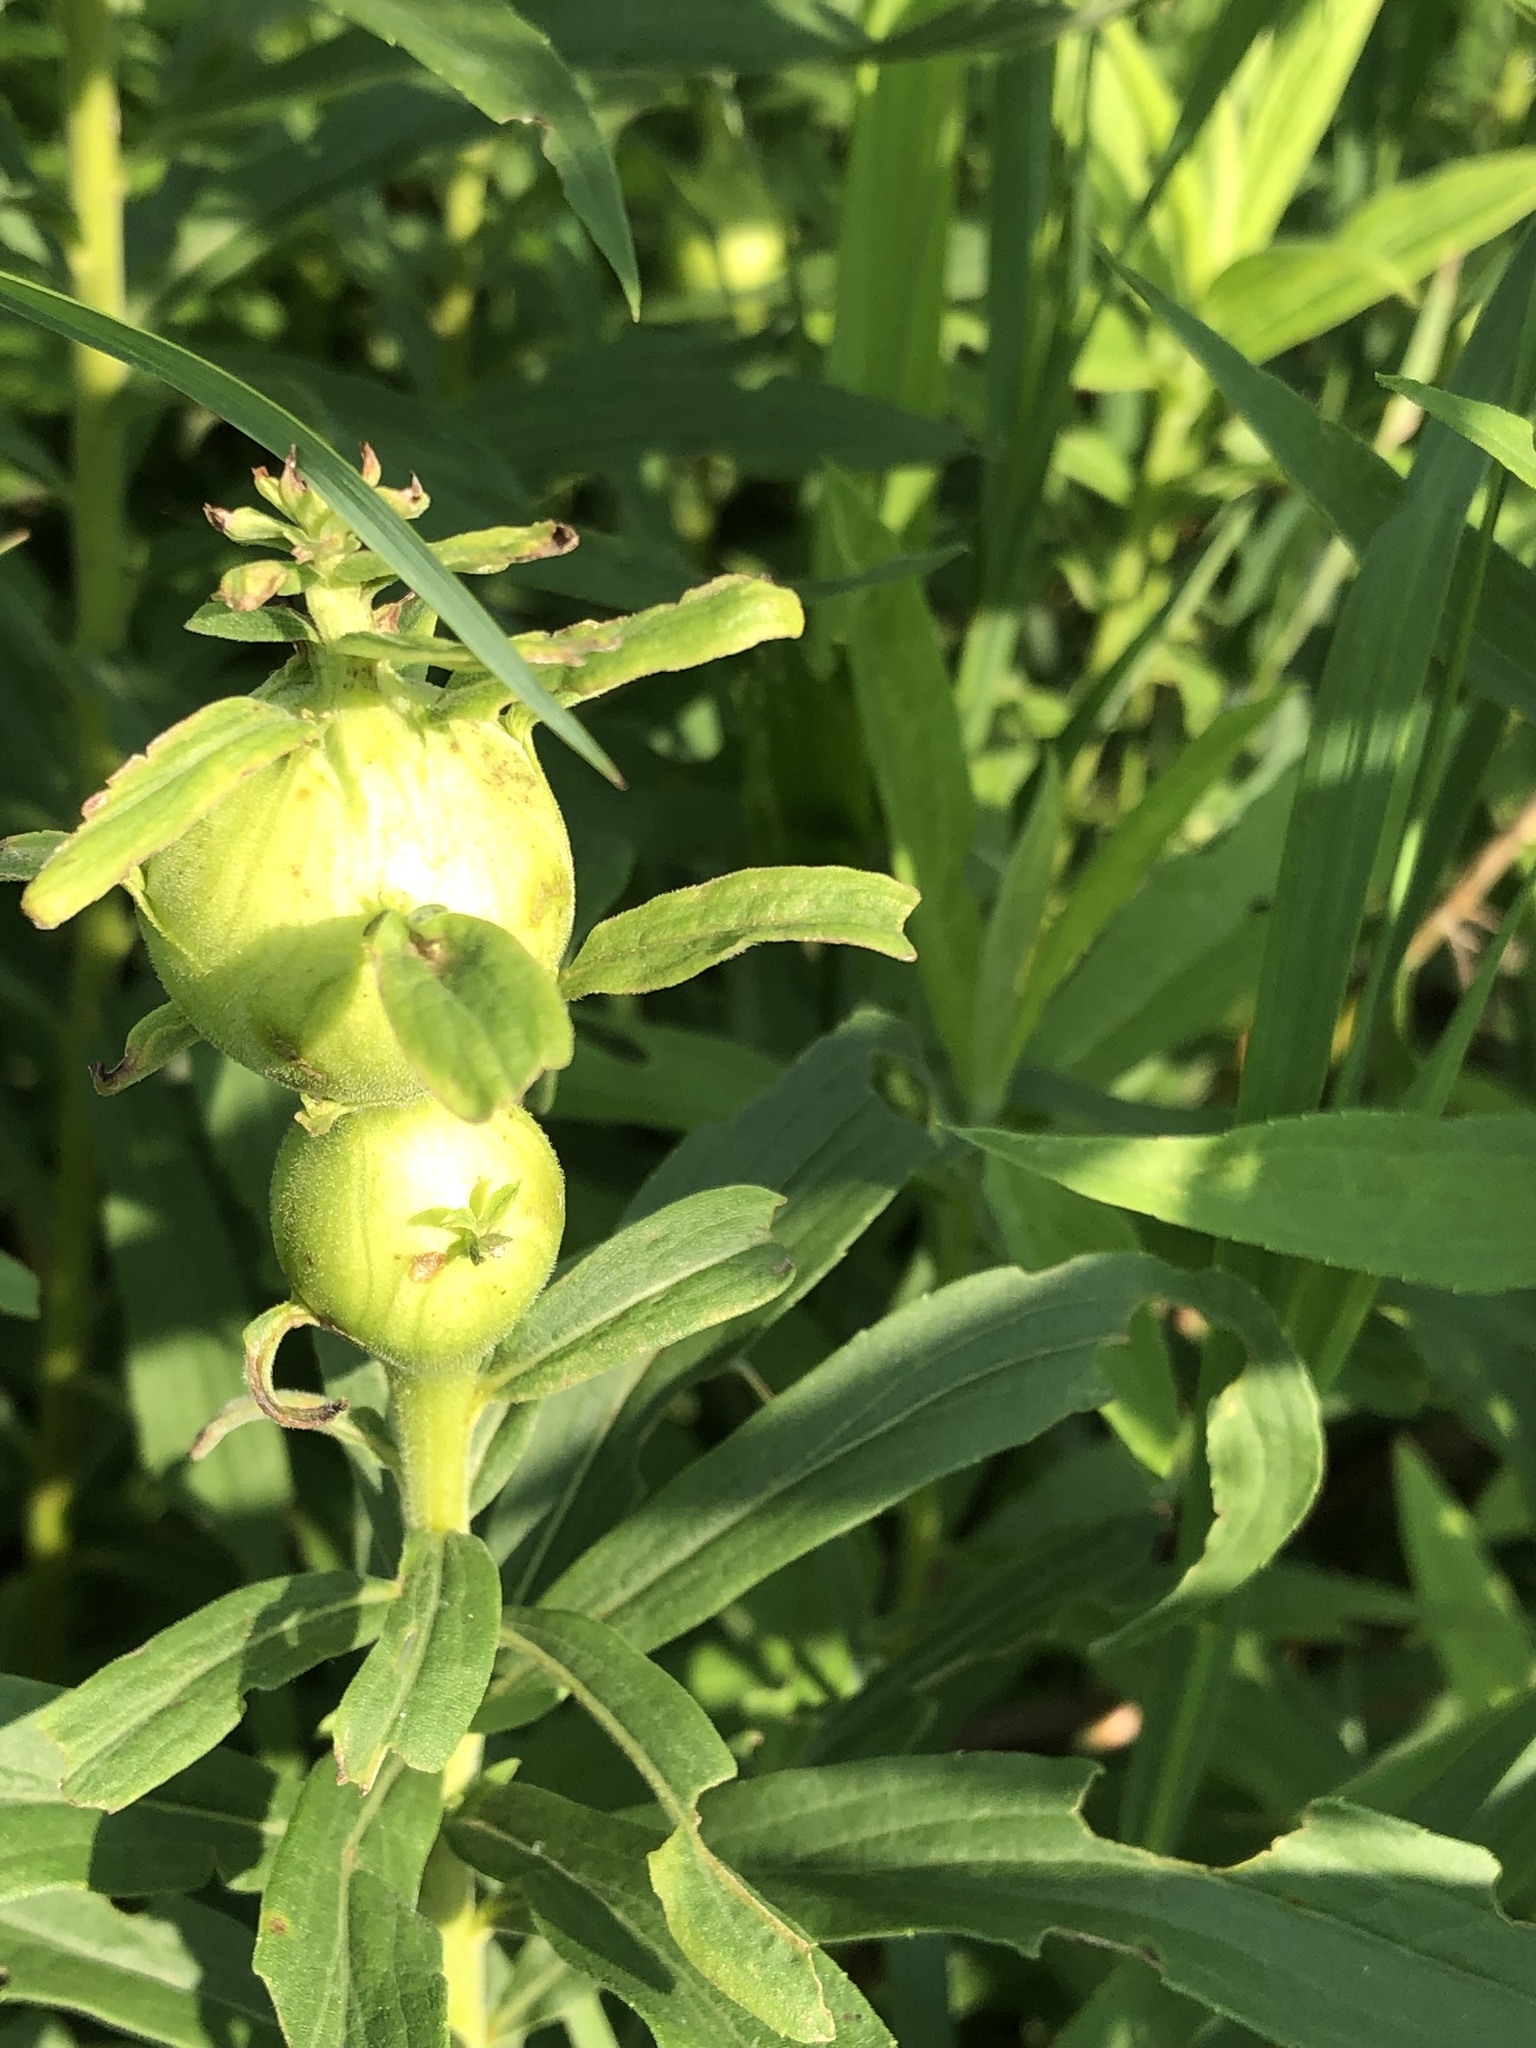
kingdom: Animalia
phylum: Arthropoda
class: Insecta
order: Diptera
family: Tephritidae
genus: Eurosta
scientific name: Eurosta solidaginis
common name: Goldenrod gall fly
